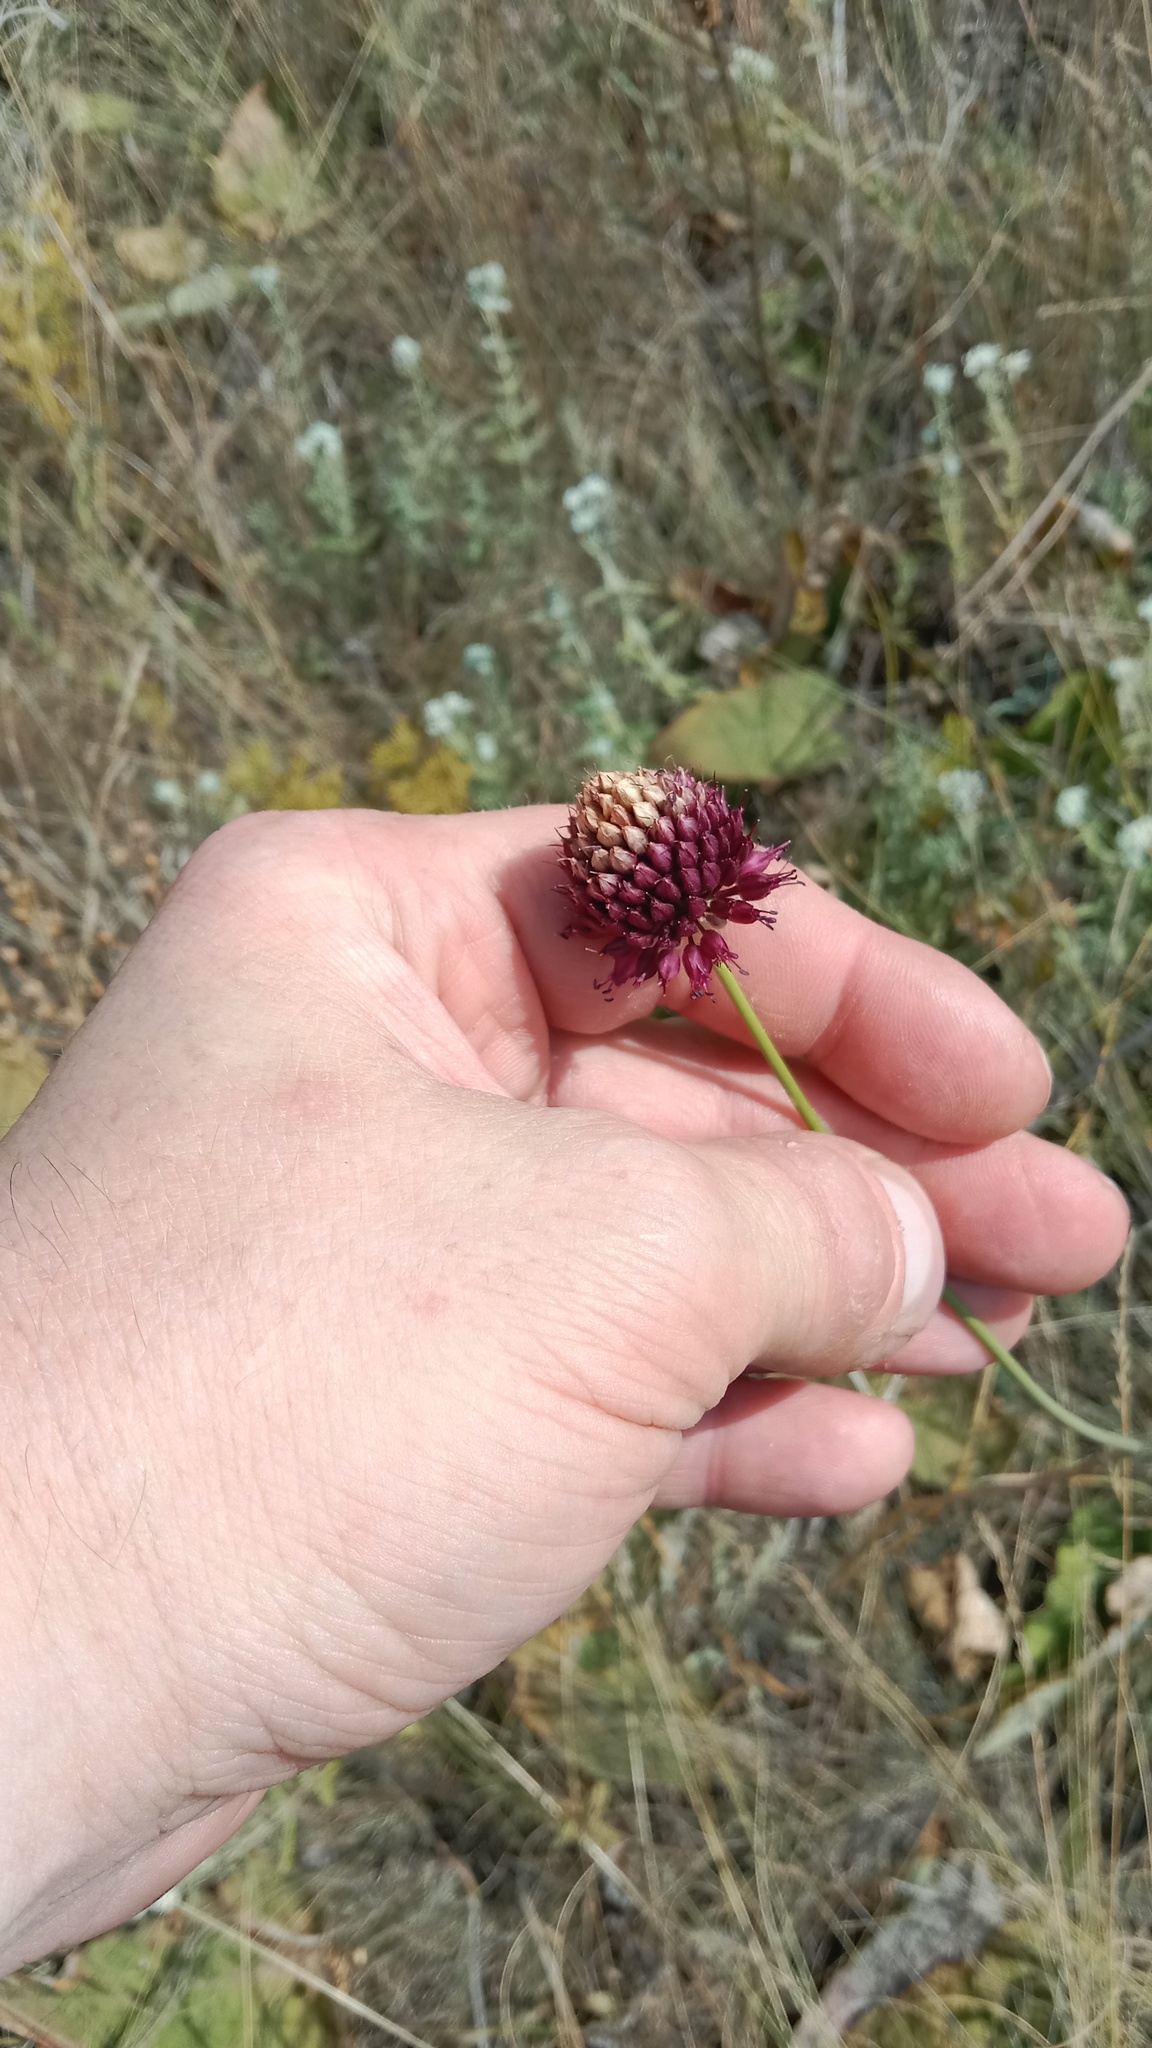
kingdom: Plantae
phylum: Tracheophyta
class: Liliopsida
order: Asparagales
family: Amaryllidaceae
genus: Allium
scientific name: Allium sphaerocephalon
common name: Round-headed leek
